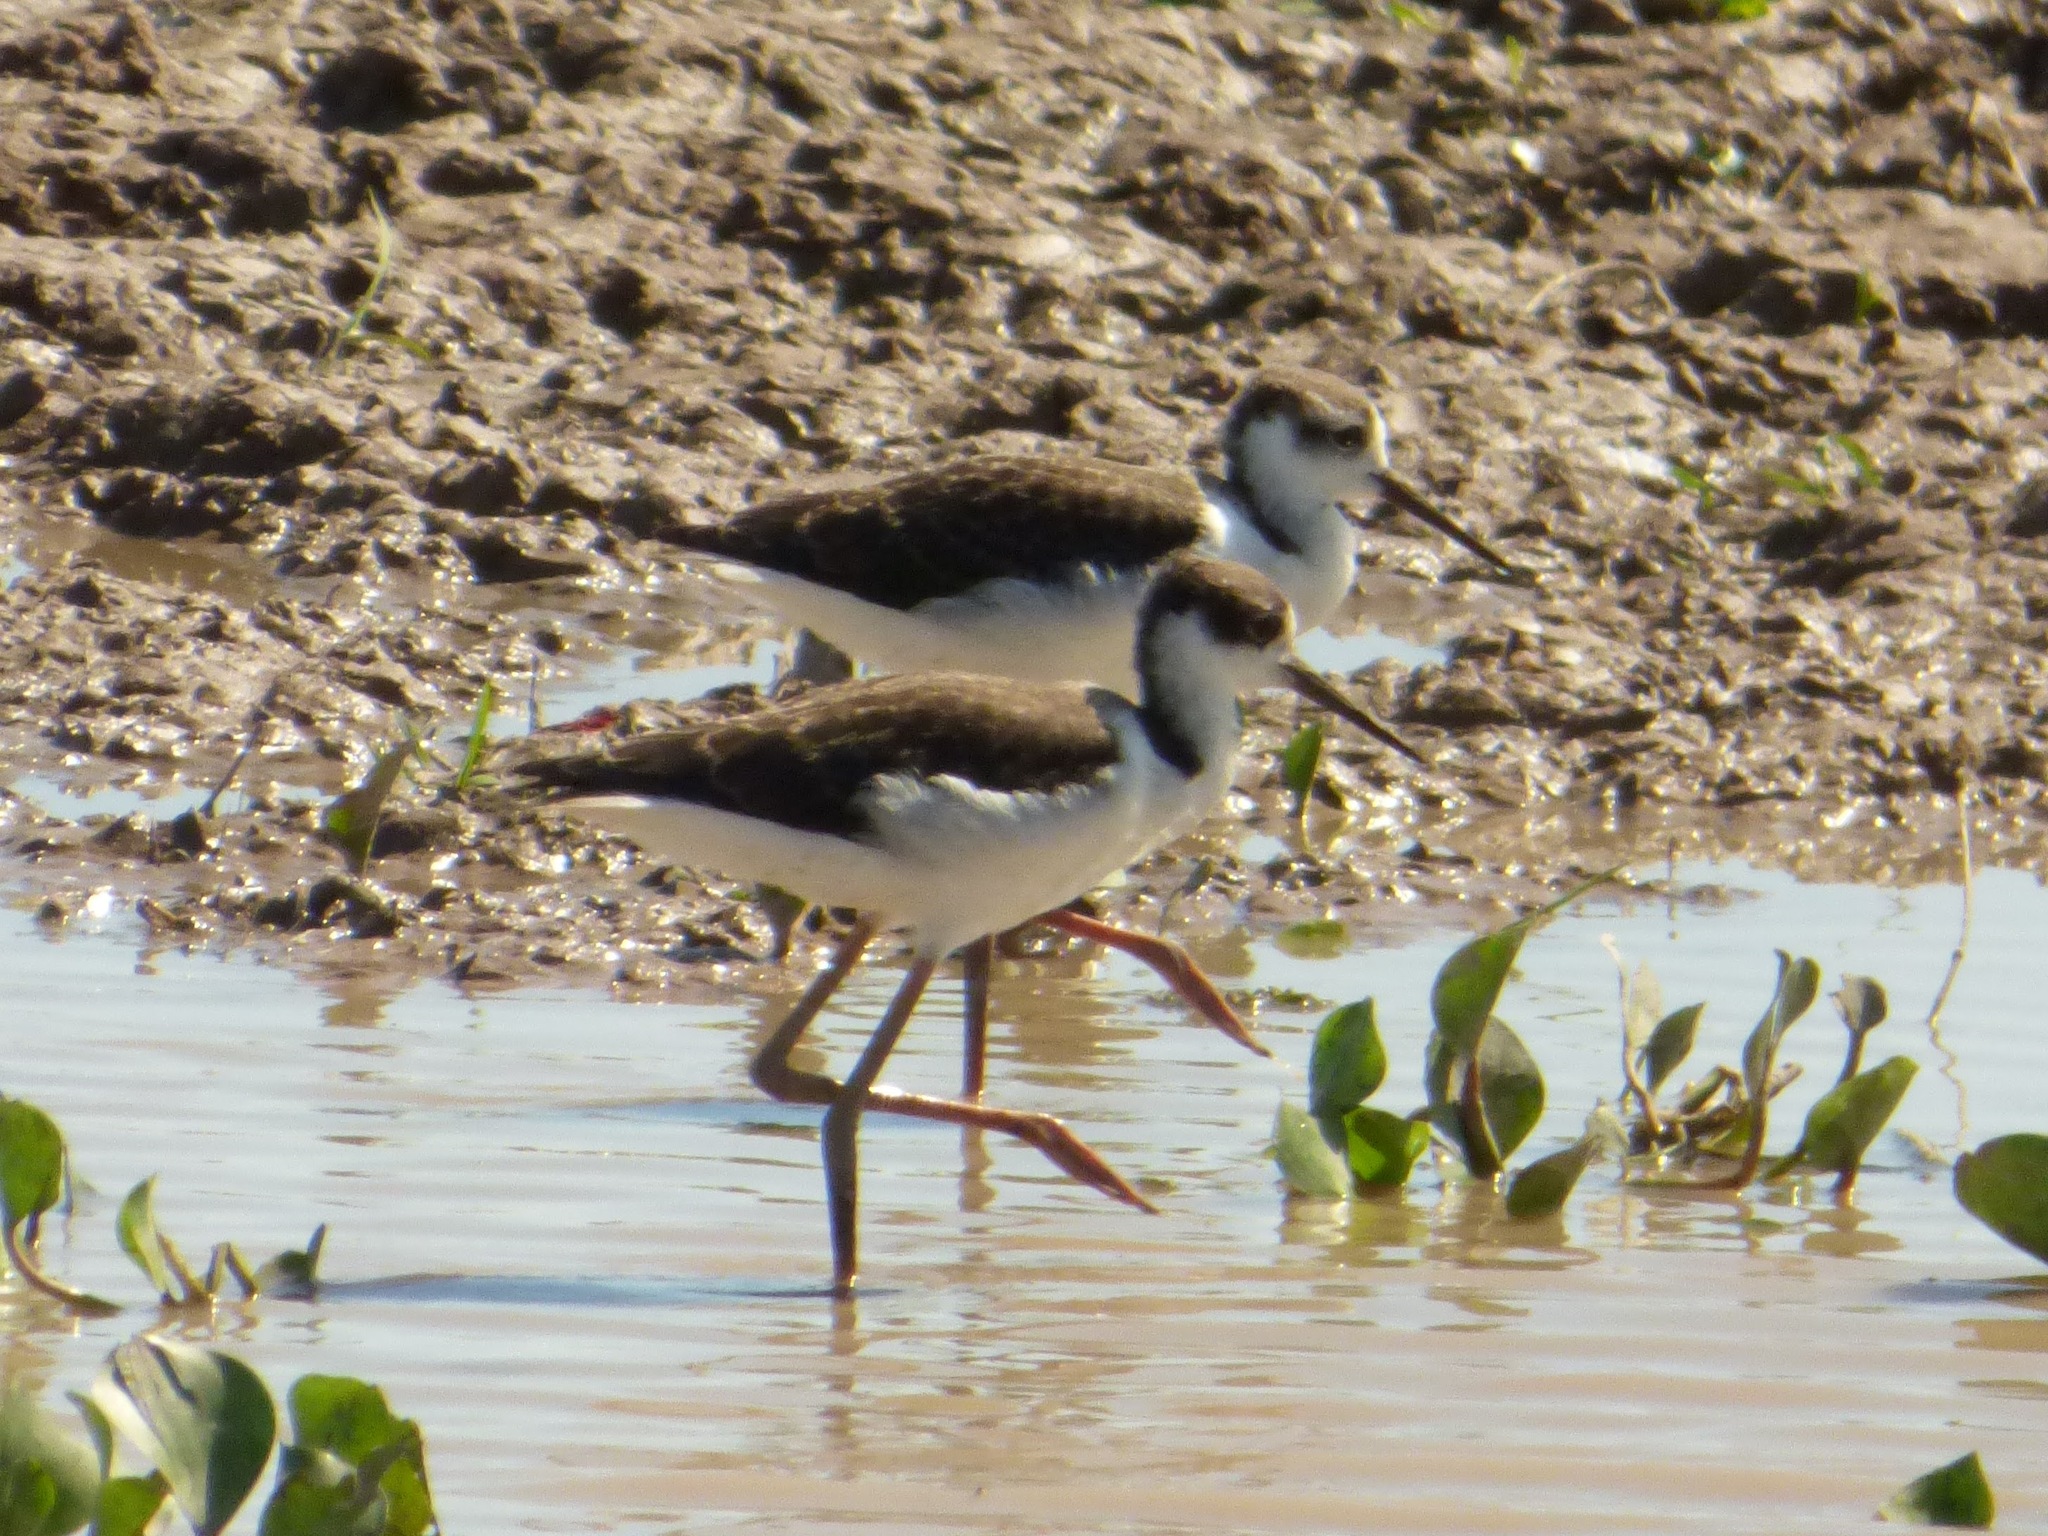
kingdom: Animalia
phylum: Chordata
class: Aves
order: Charadriiformes
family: Recurvirostridae
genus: Himantopus
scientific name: Himantopus mexicanus
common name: Black-necked stilt
